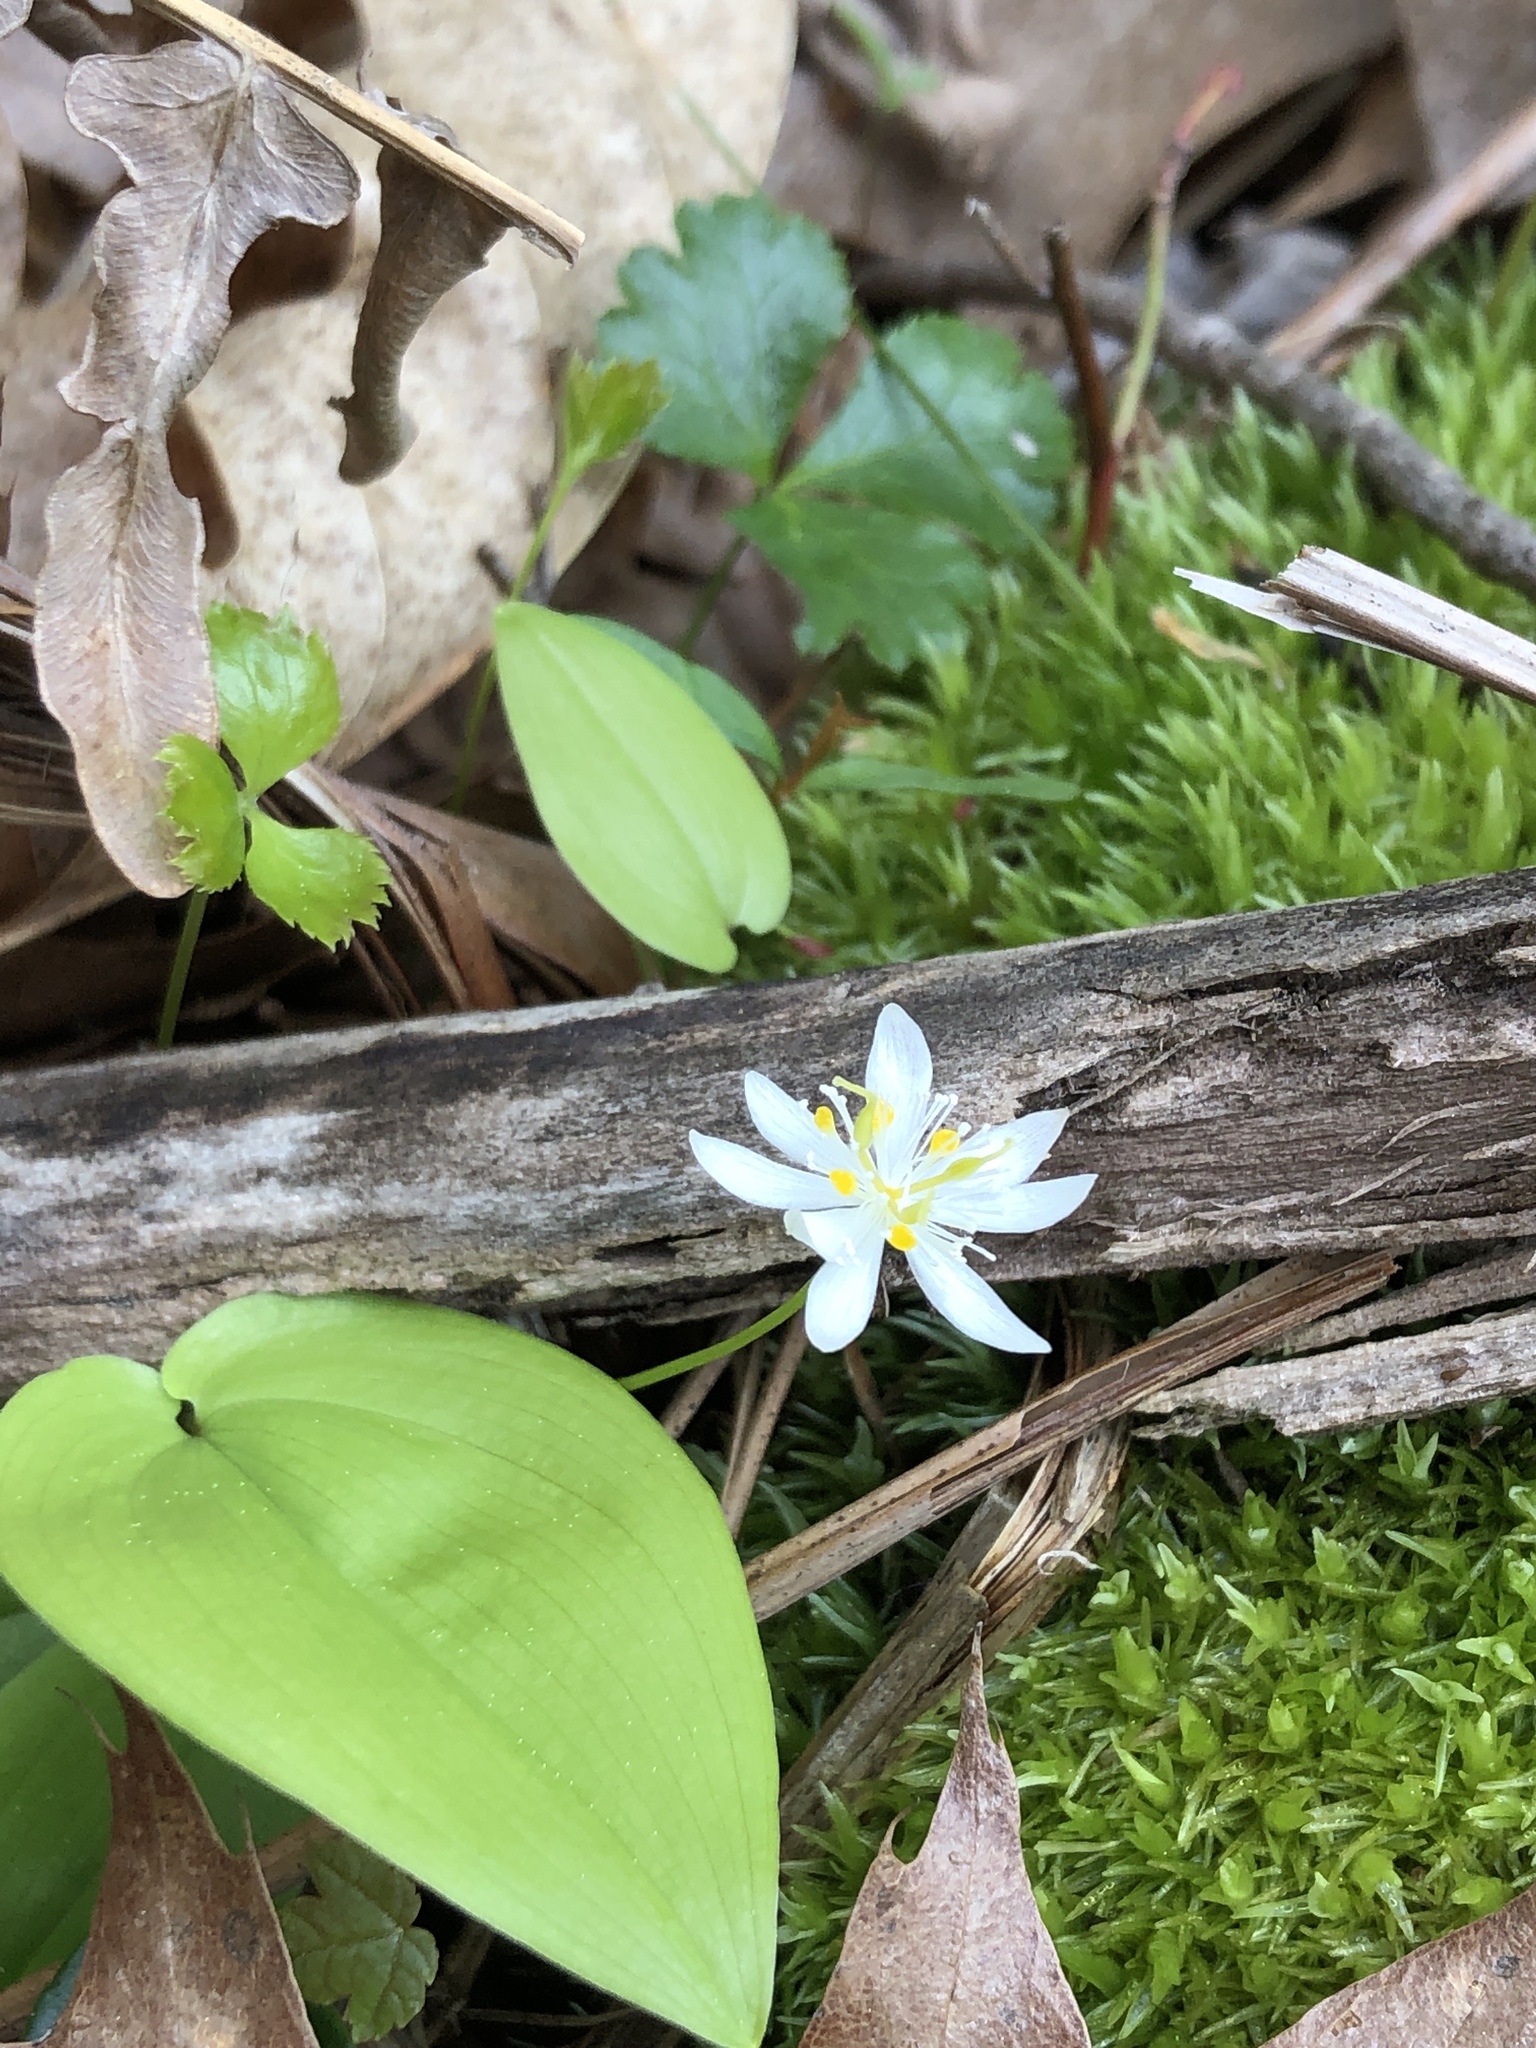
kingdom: Plantae
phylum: Tracheophyta
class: Magnoliopsida
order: Ranunculales
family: Ranunculaceae
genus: Coptis
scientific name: Coptis trifolia
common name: Canker-root
